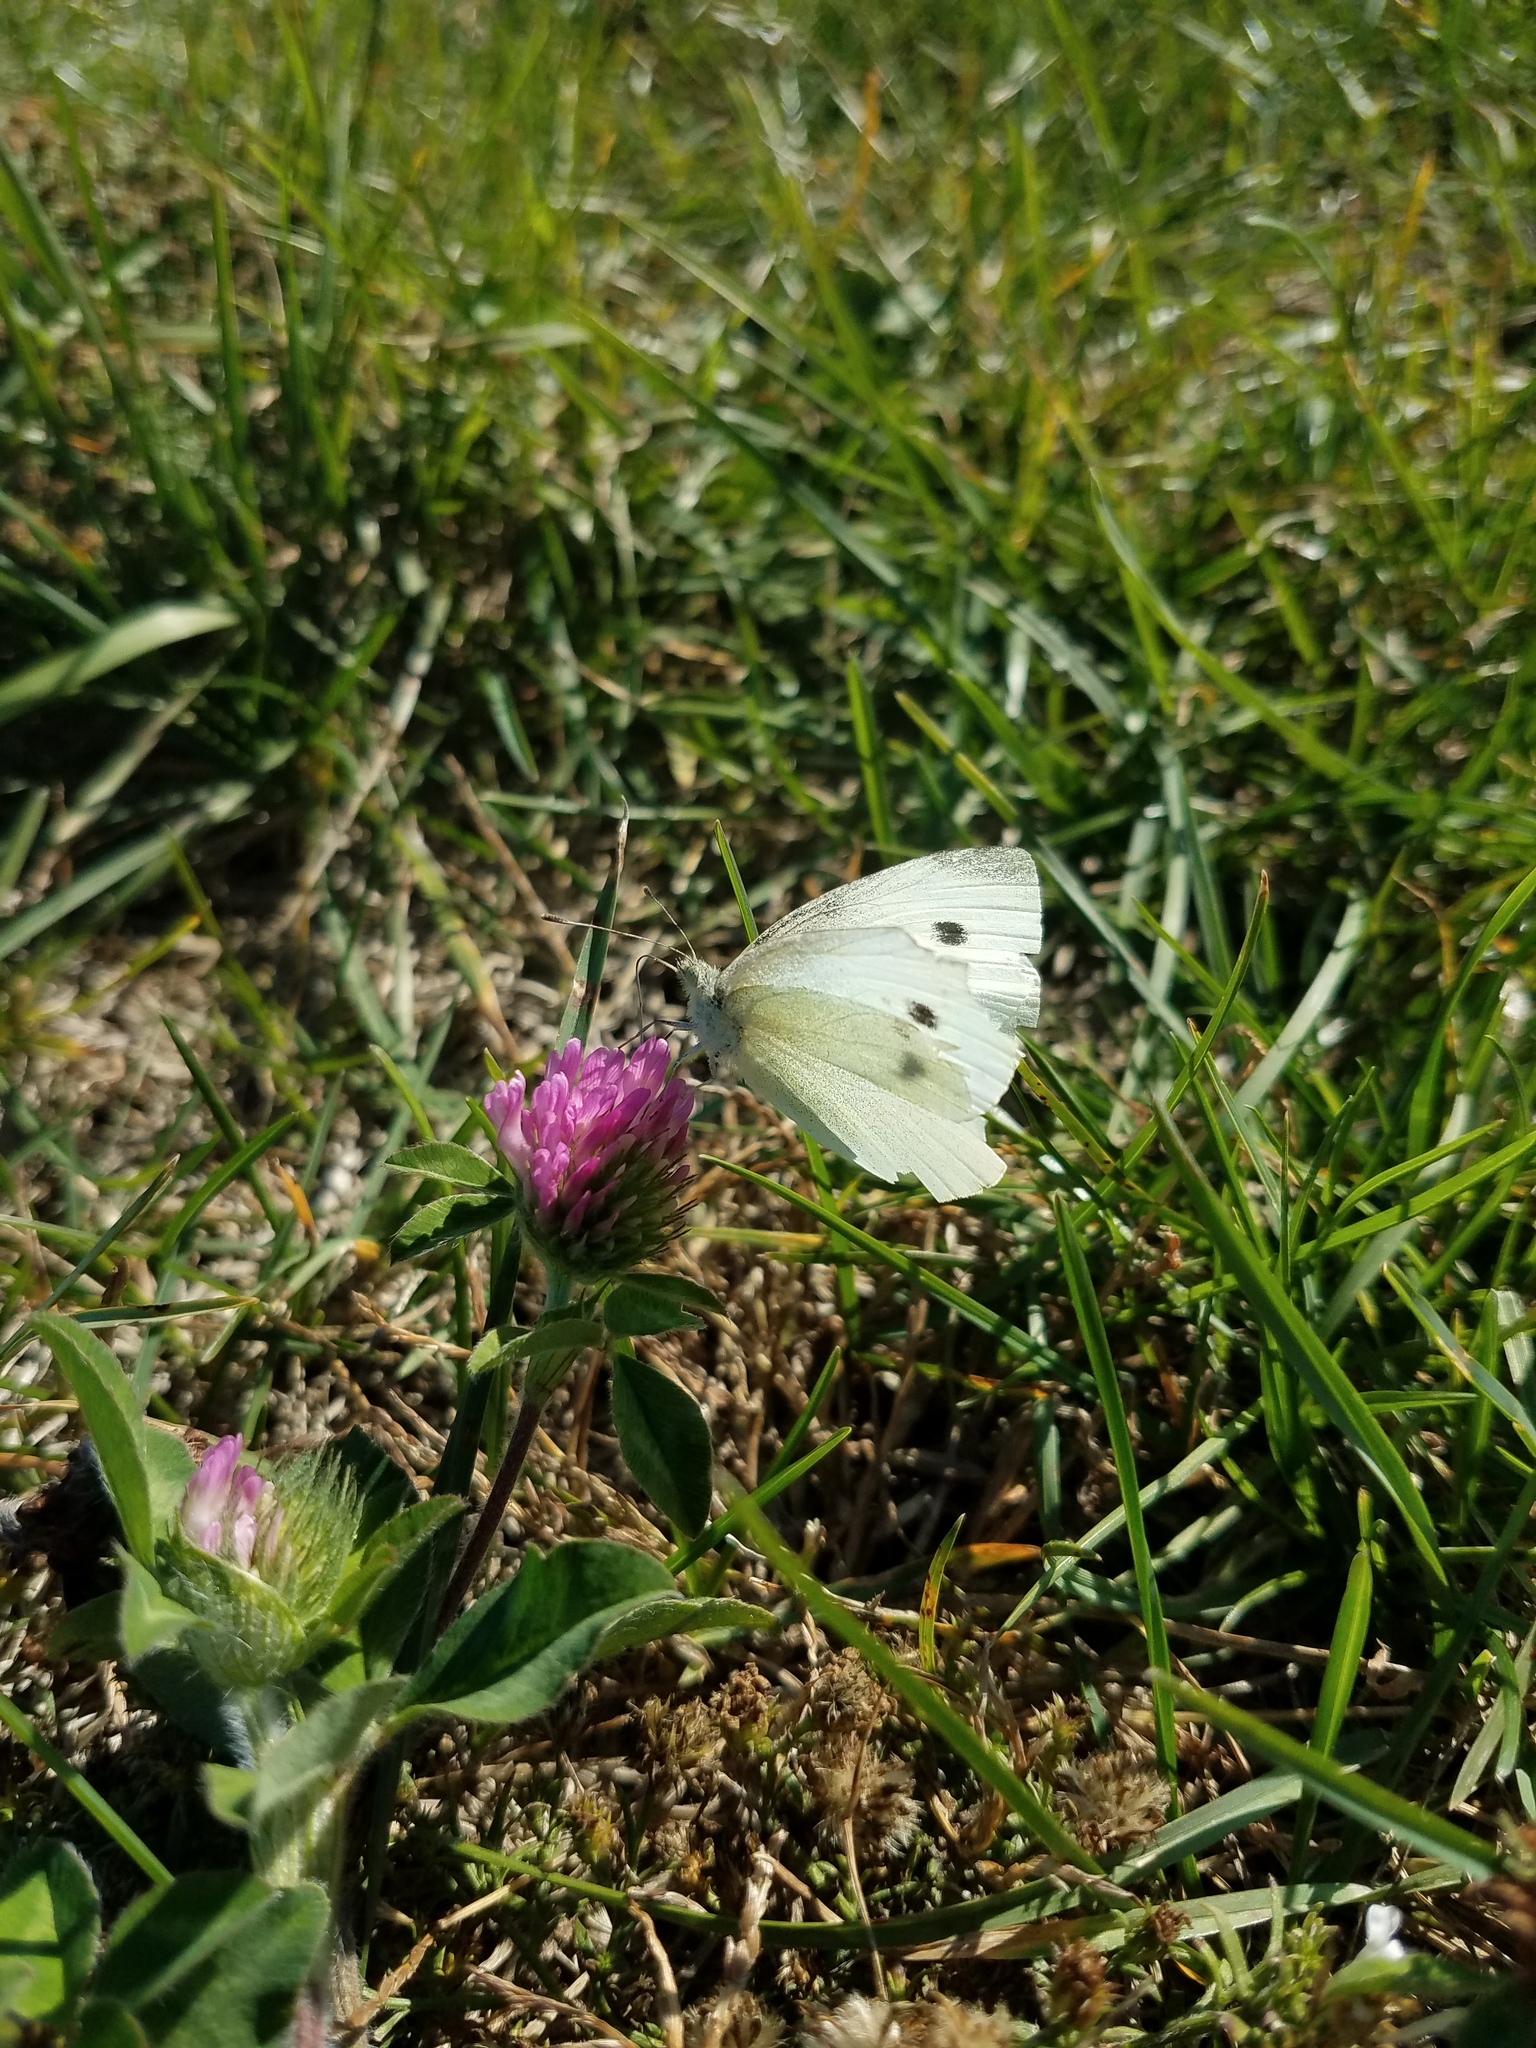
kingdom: Animalia
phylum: Arthropoda
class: Insecta
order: Lepidoptera
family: Pieridae
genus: Pieris
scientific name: Pieris rapae
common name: Small white
